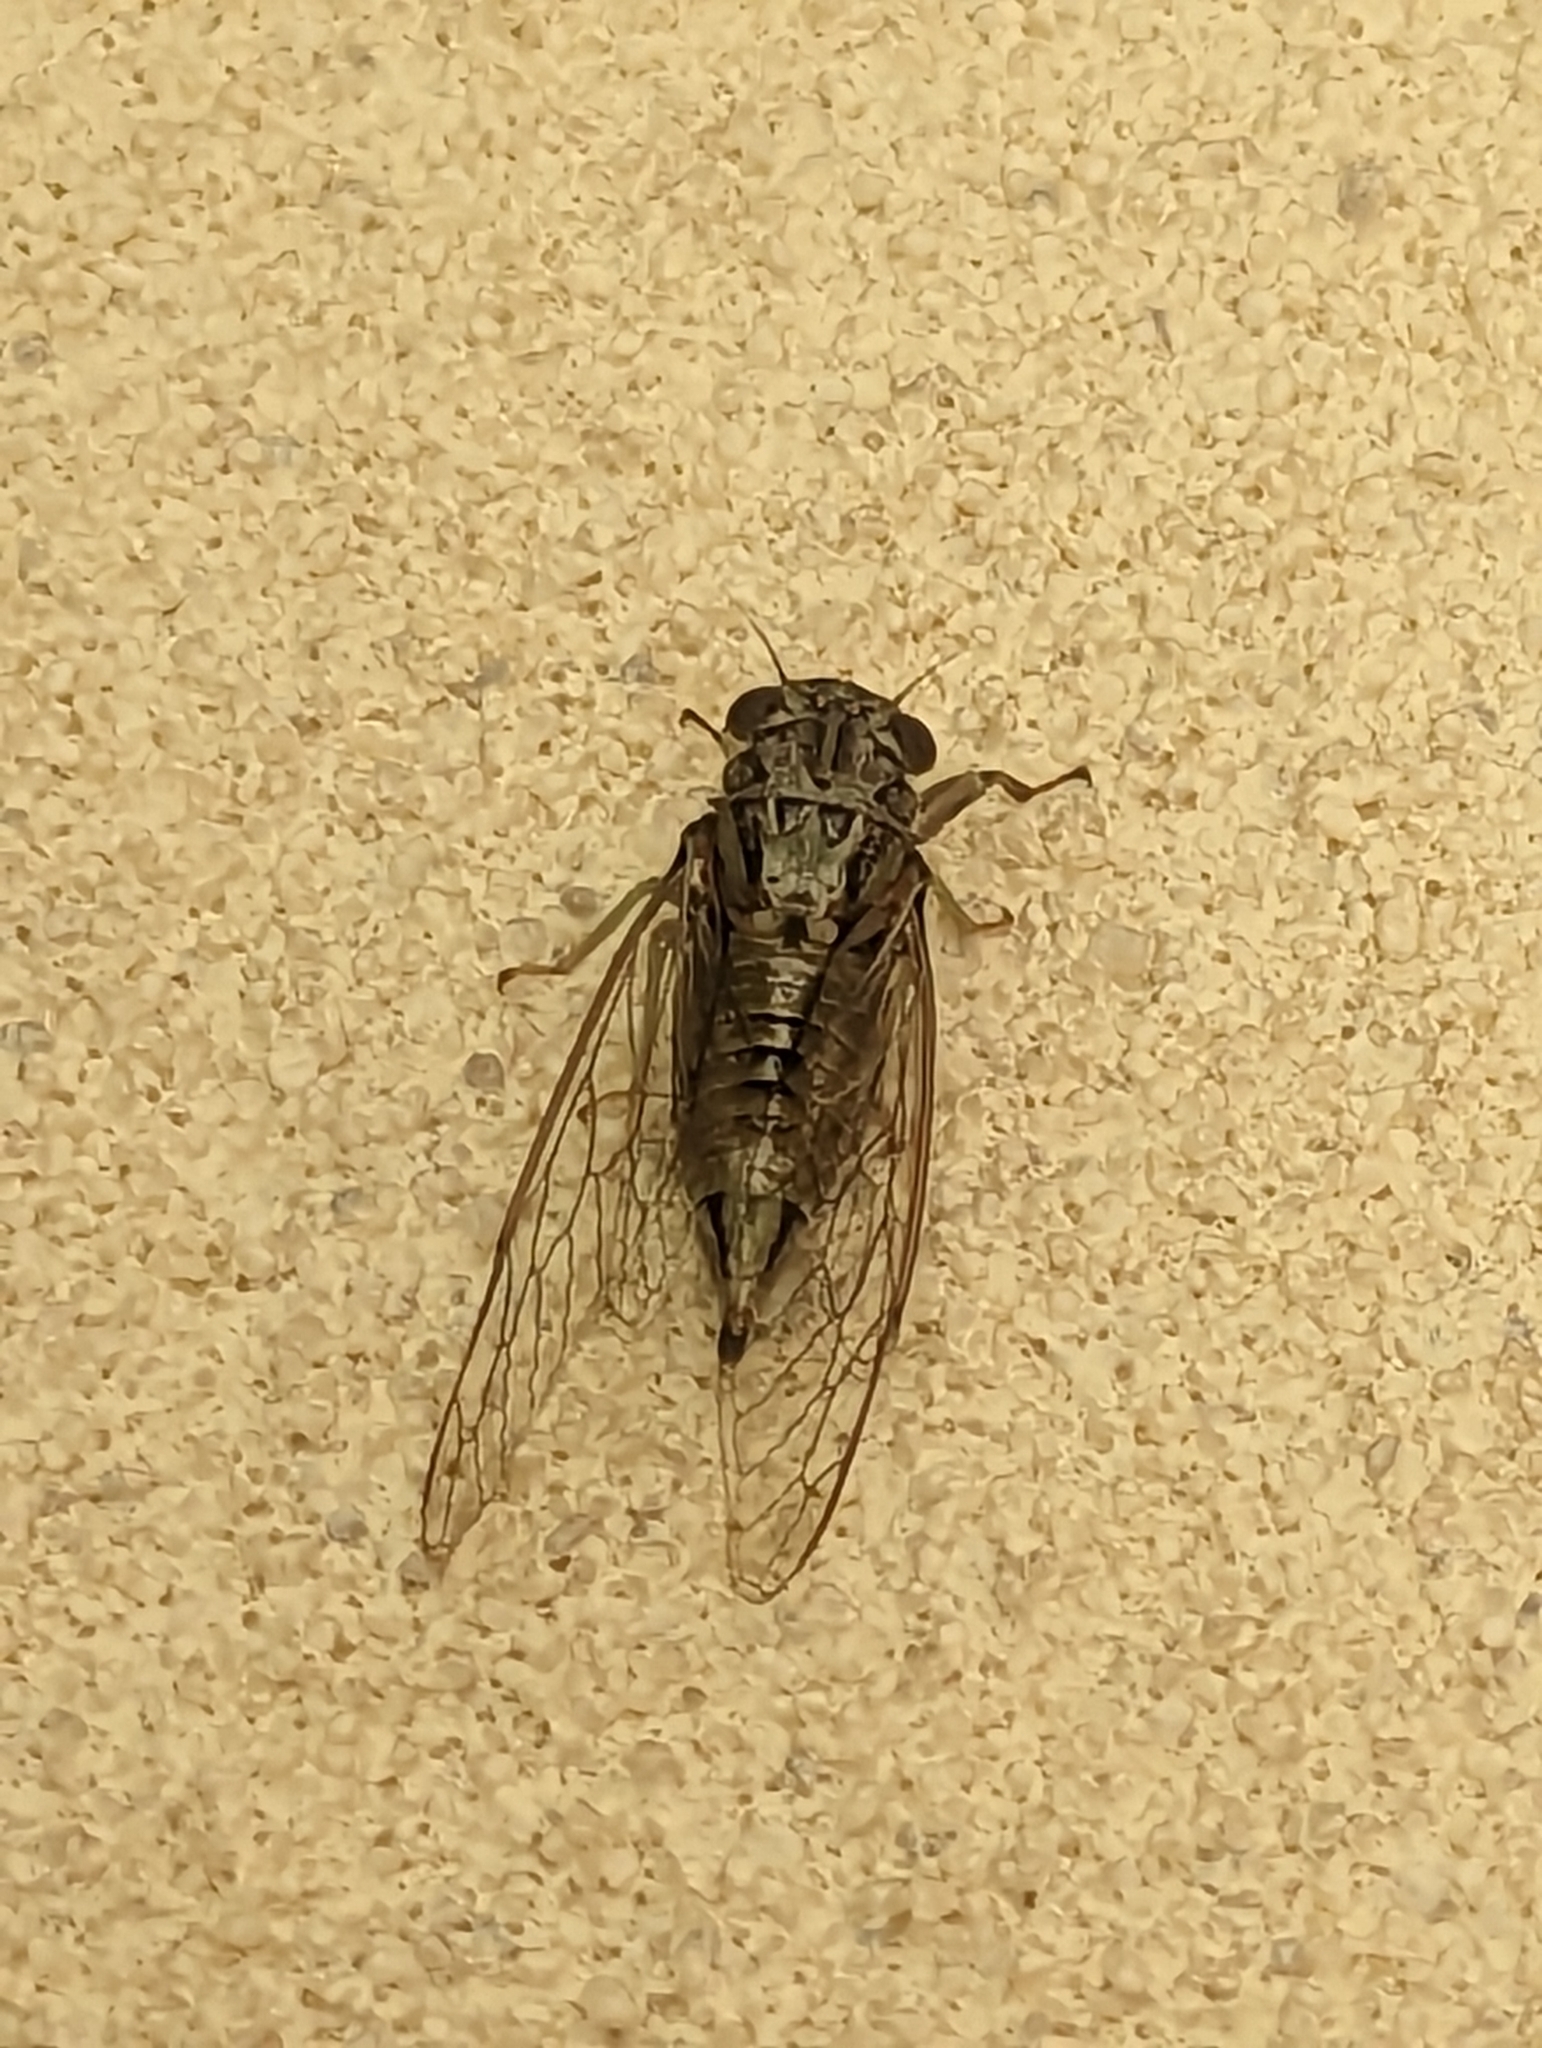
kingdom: Animalia
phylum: Arthropoda
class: Insecta
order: Hemiptera
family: Cicadidae
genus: Yoyetta
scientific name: Yoyetta celis
